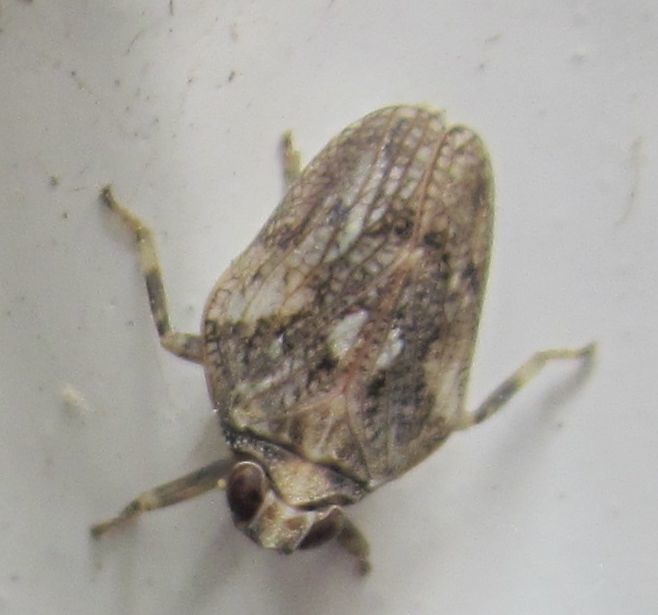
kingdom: Animalia
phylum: Arthropoda
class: Insecta
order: Hemiptera
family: Issidae
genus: Issus
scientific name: Issus coleoptratus
